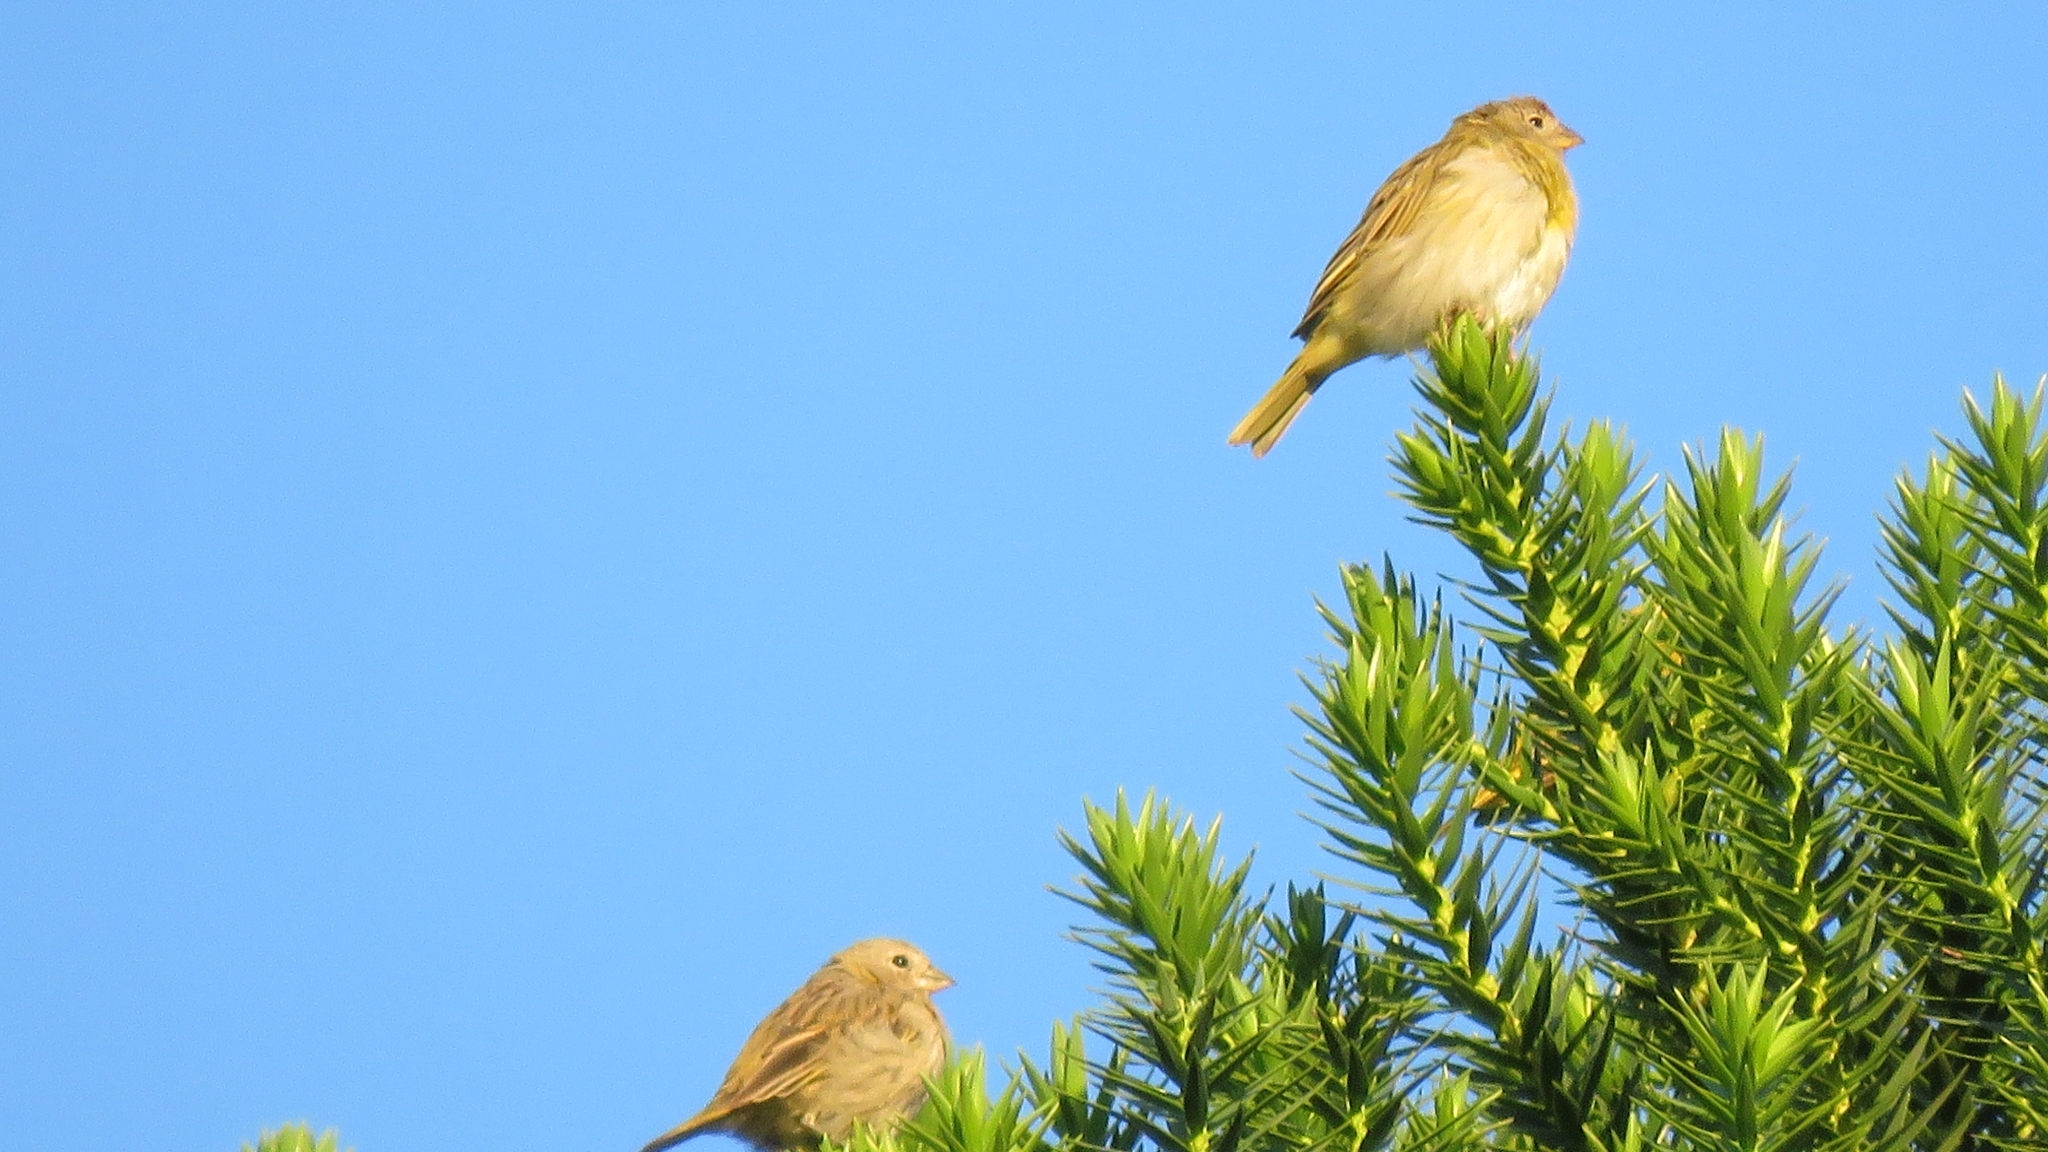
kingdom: Animalia
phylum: Chordata
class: Aves
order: Passeriformes
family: Thraupidae
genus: Sicalis
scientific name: Sicalis flaveola
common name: Saffron finch
